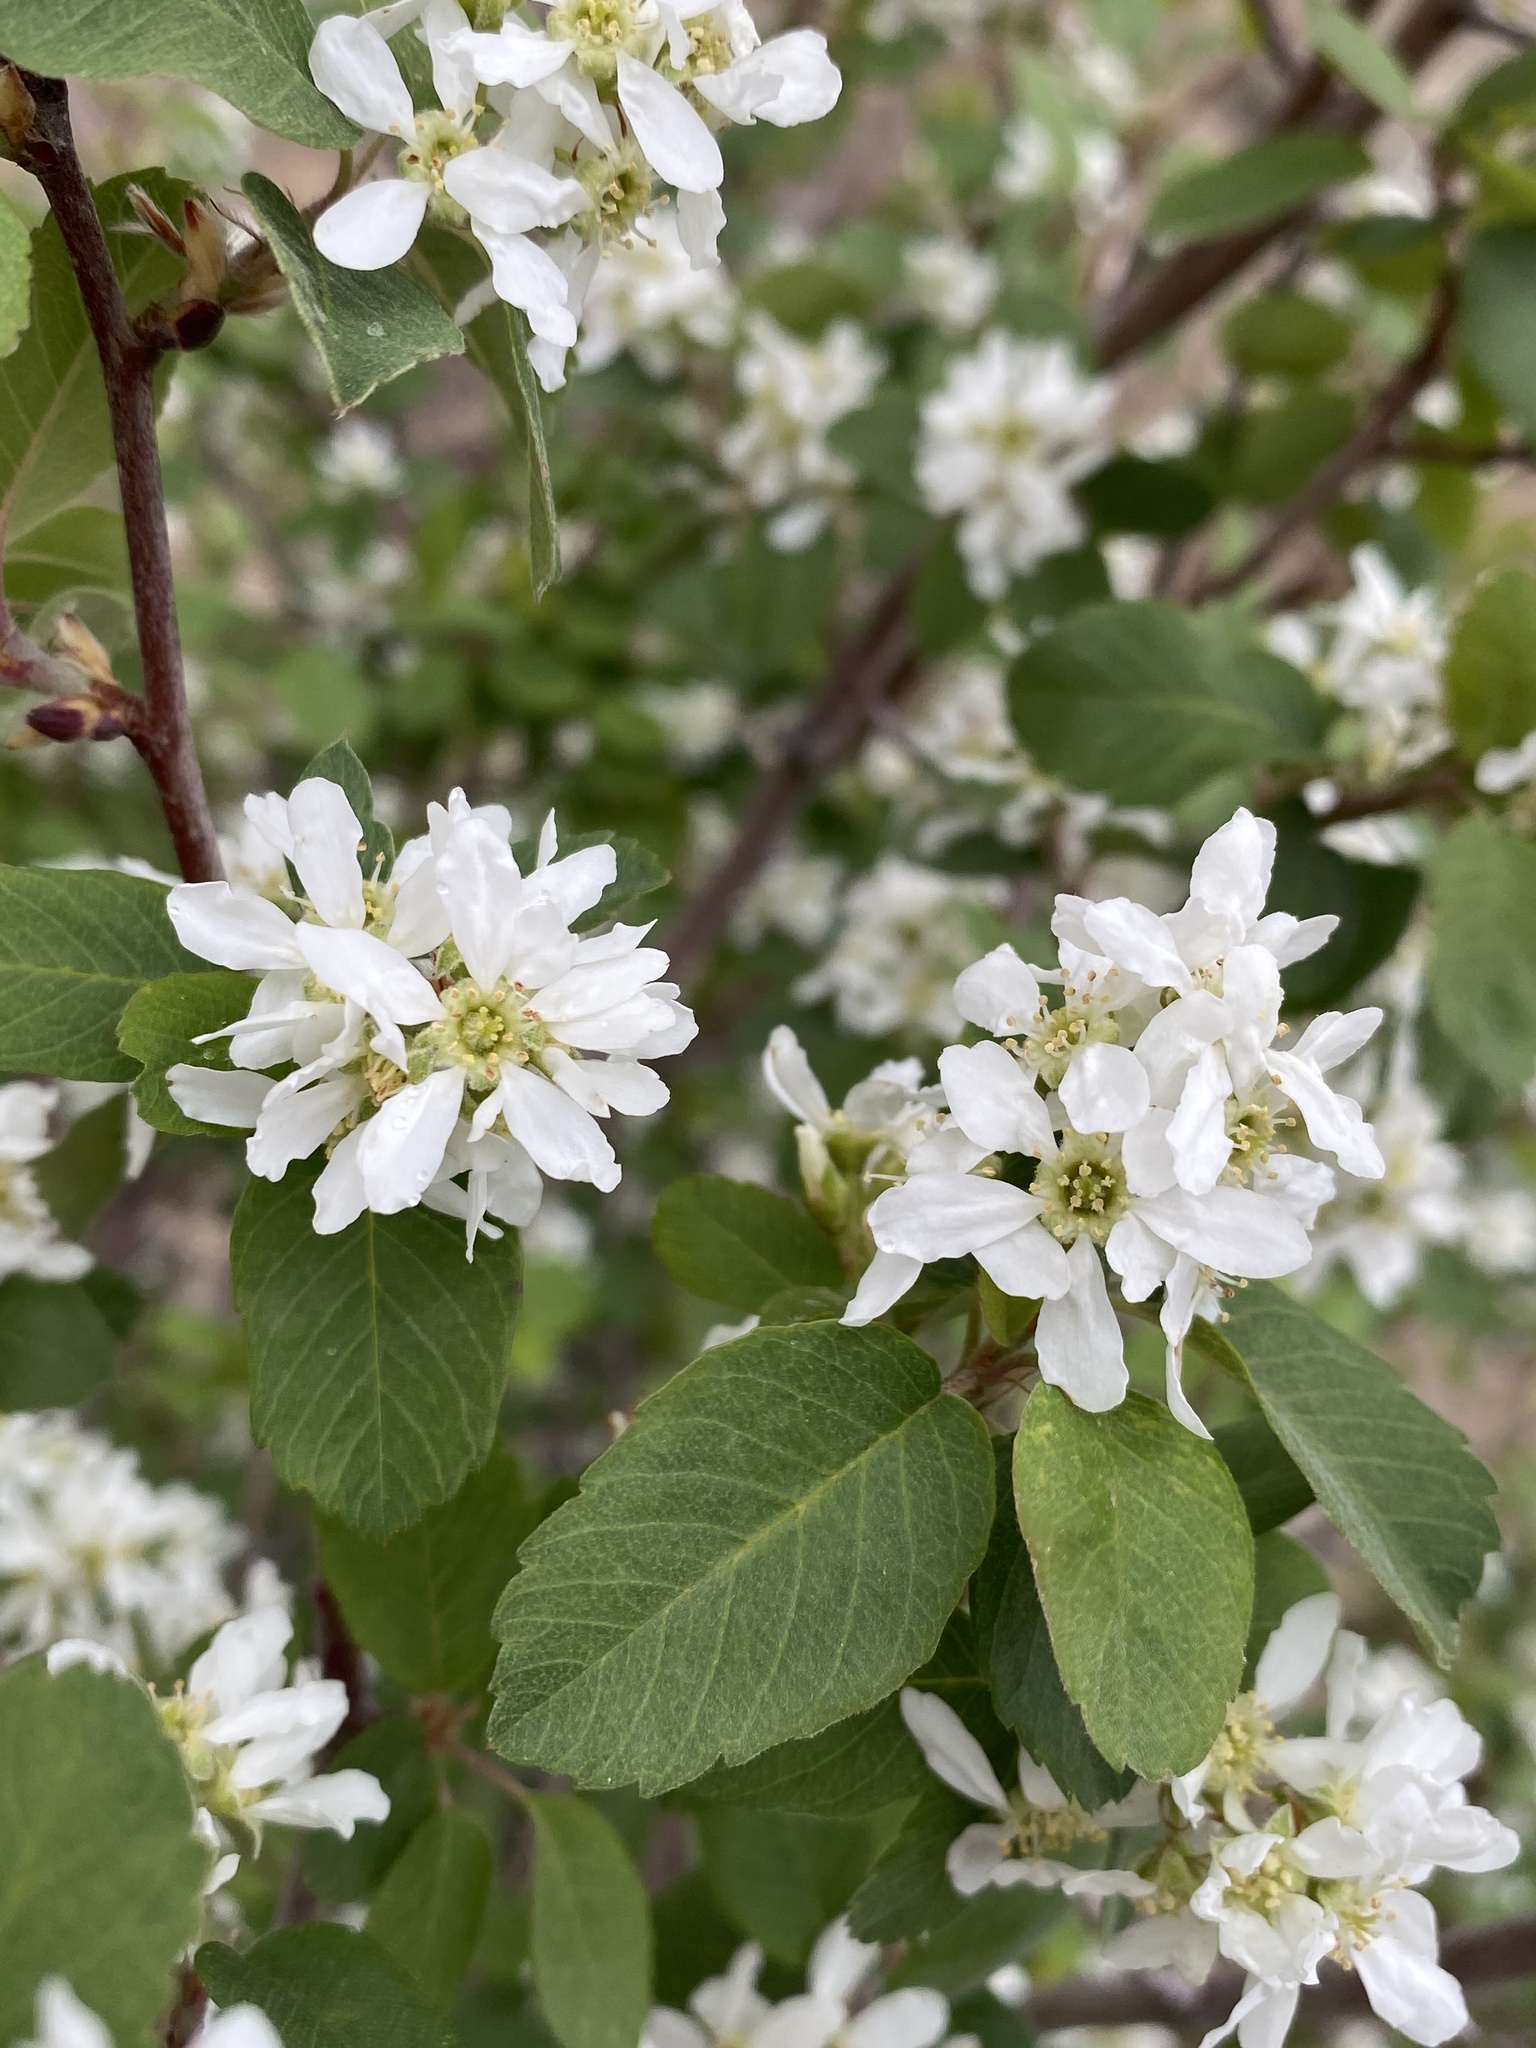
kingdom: Plantae
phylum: Tracheophyta
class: Magnoliopsida
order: Rosales
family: Rosaceae
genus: Amelanchier
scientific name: Amelanchier alnifolia
